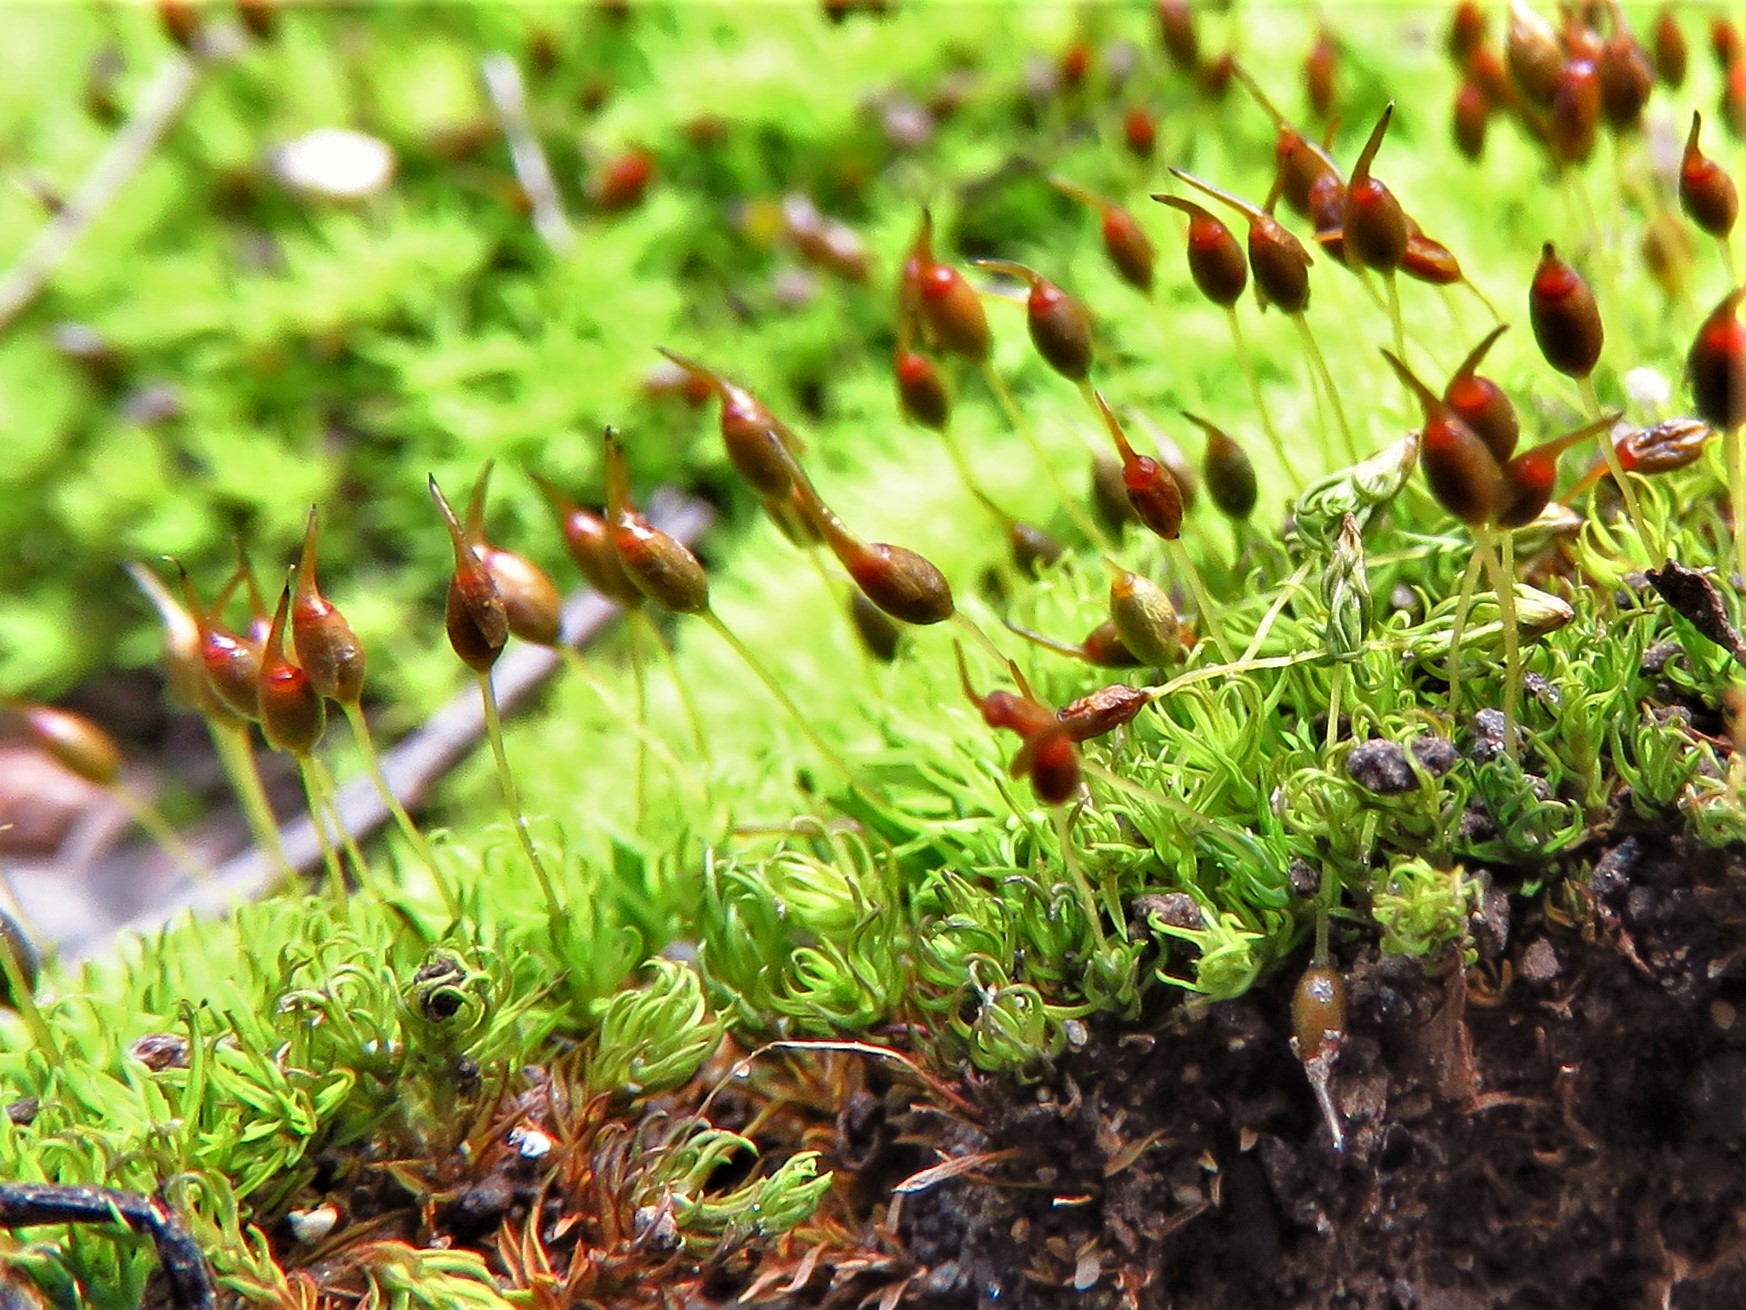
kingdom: Plantae
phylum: Bryophyta
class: Bryopsida
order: Pottiales
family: Pottiaceae
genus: Weissia
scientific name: Weissia controversa
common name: Green-tufted stubble moss
